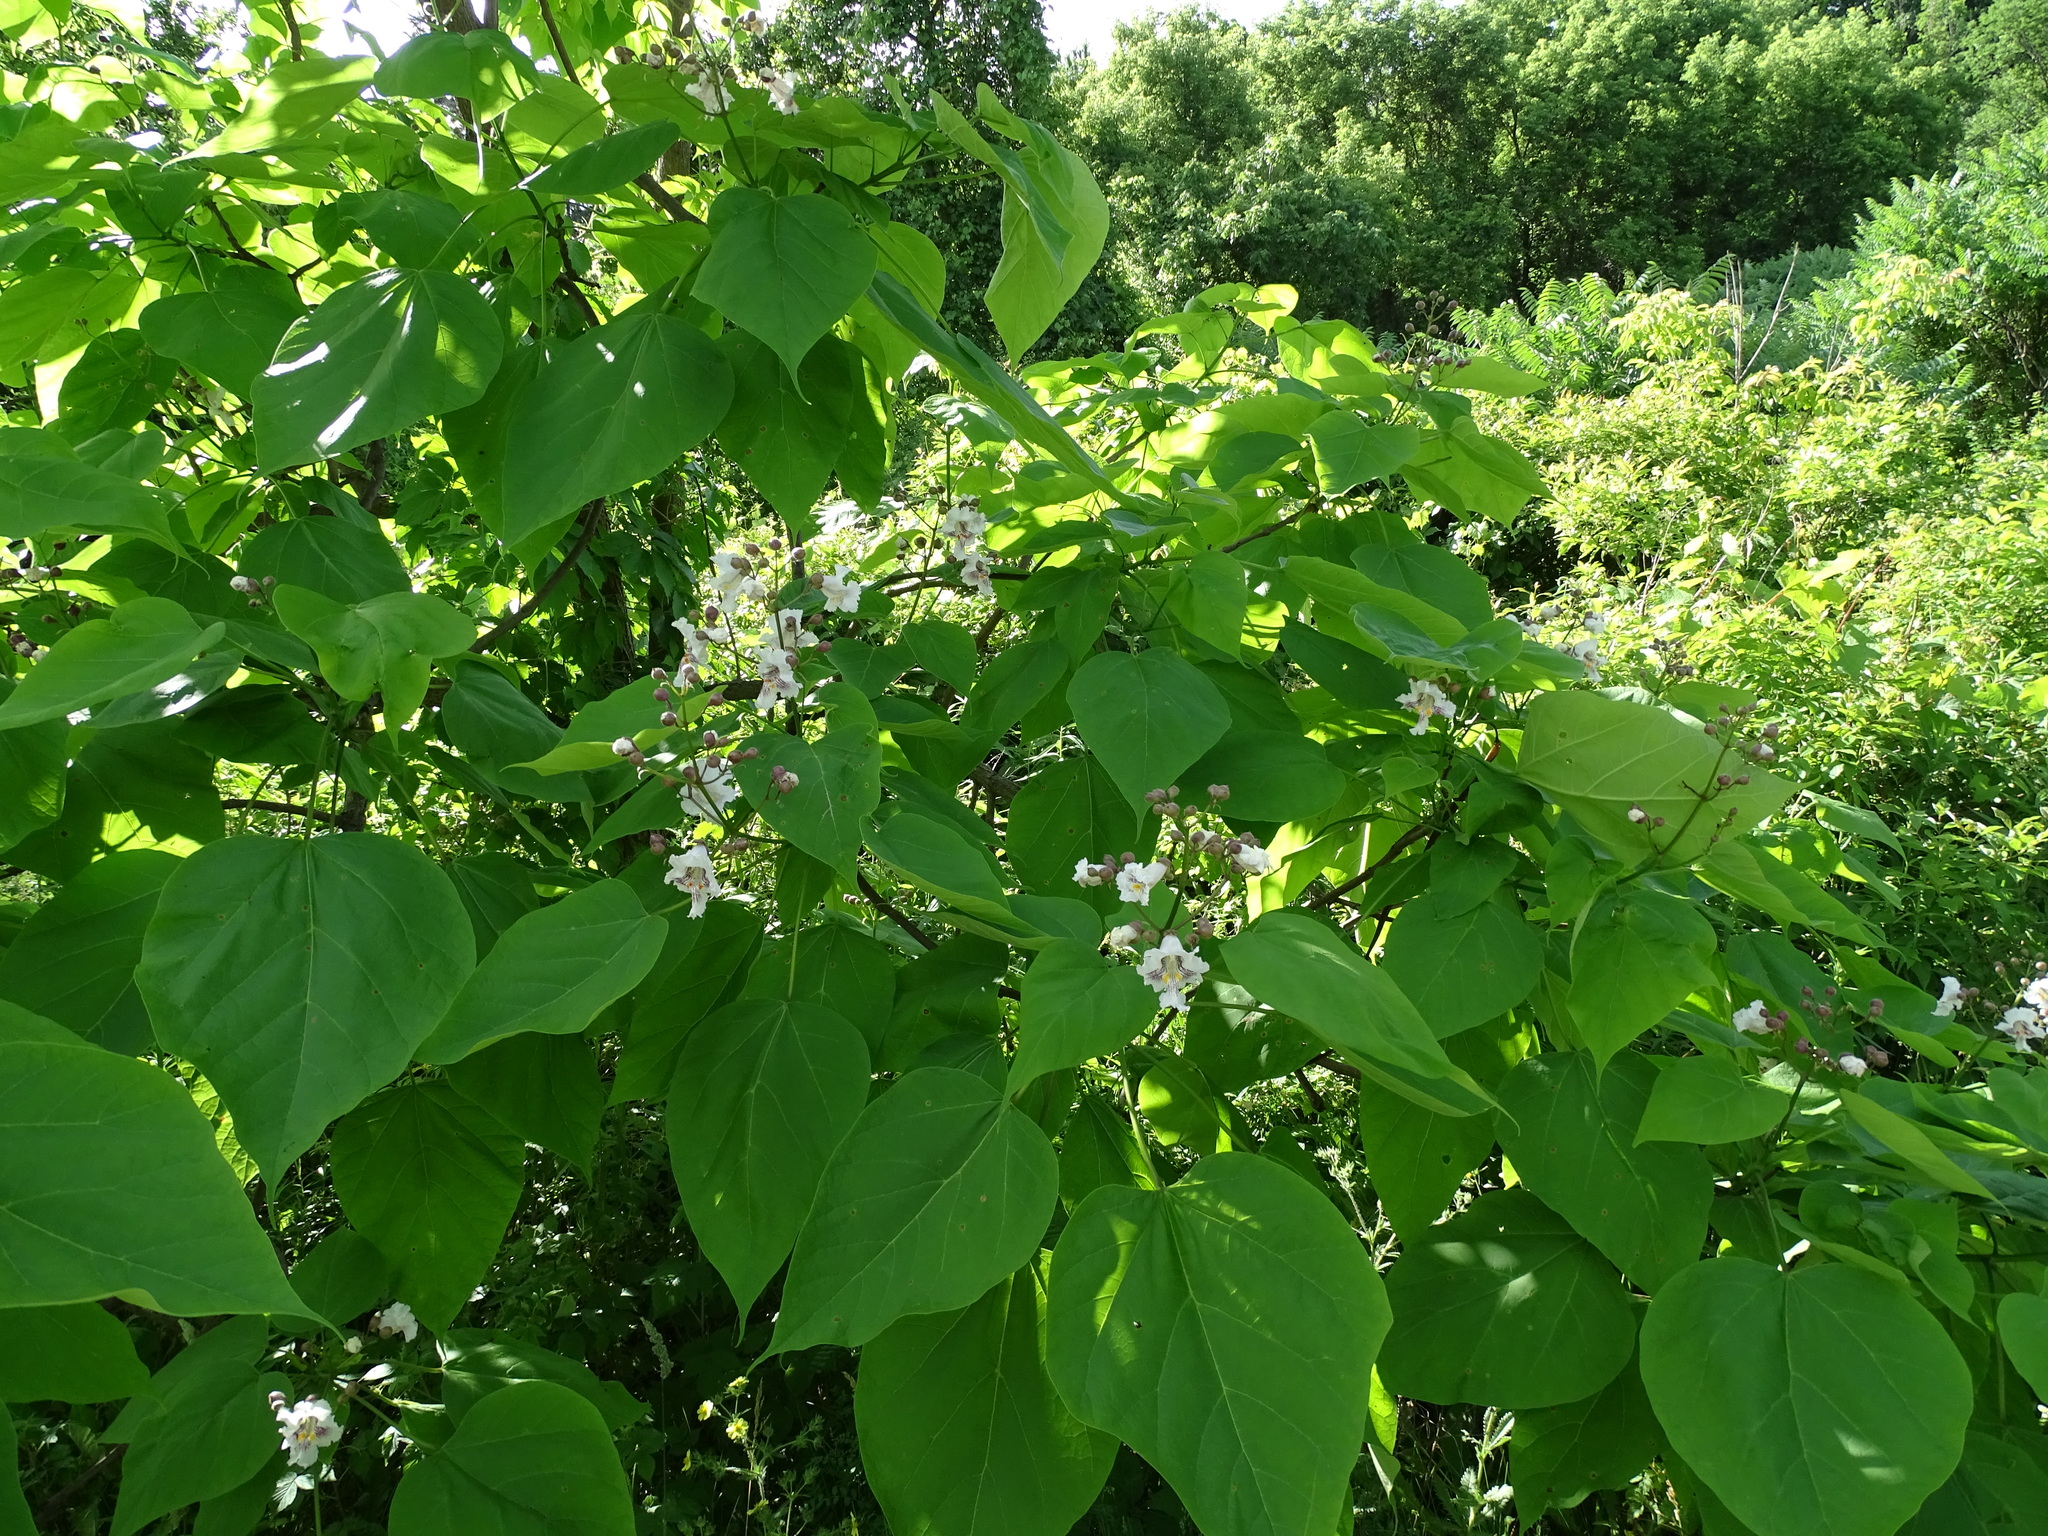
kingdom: Plantae
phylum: Tracheophyta
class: Magnoliopsida
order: Lamiales
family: Bignoniaceae
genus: Catalpa
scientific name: Catalpa speciosa
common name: Northern catalpa
